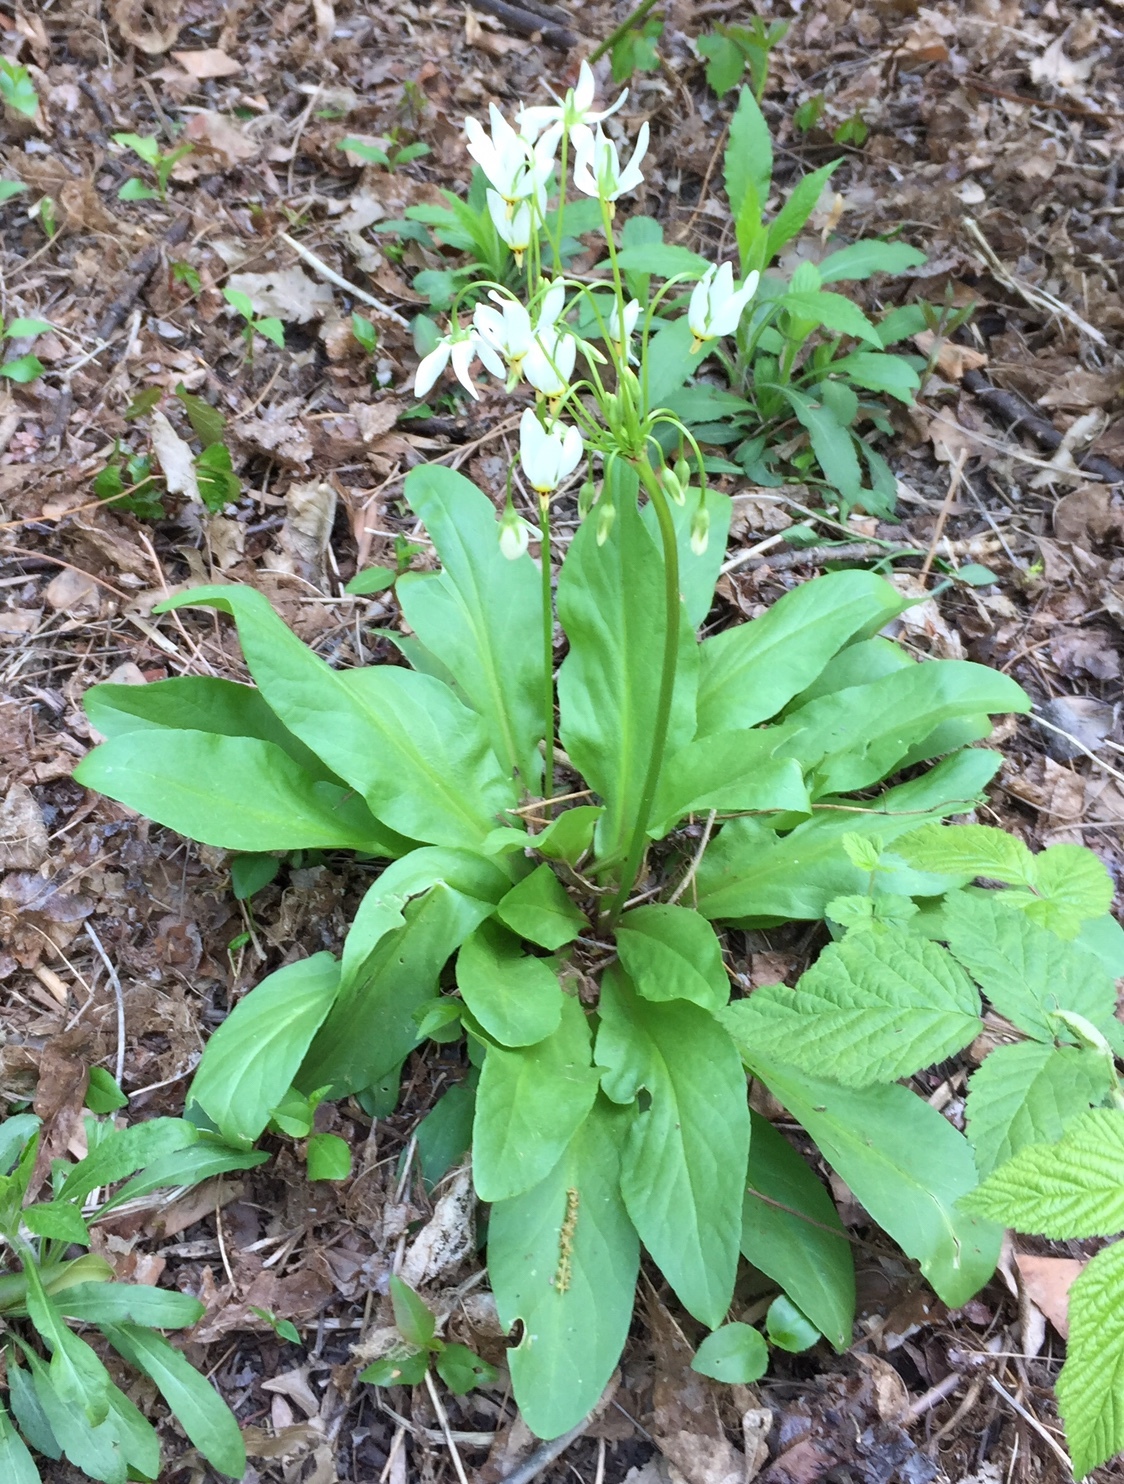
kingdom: Plantae
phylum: Tracheophyta
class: Magnoliopsida
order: Ericales
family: Primulaceae
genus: Dodecatheon
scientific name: Dodecatheon meadia
